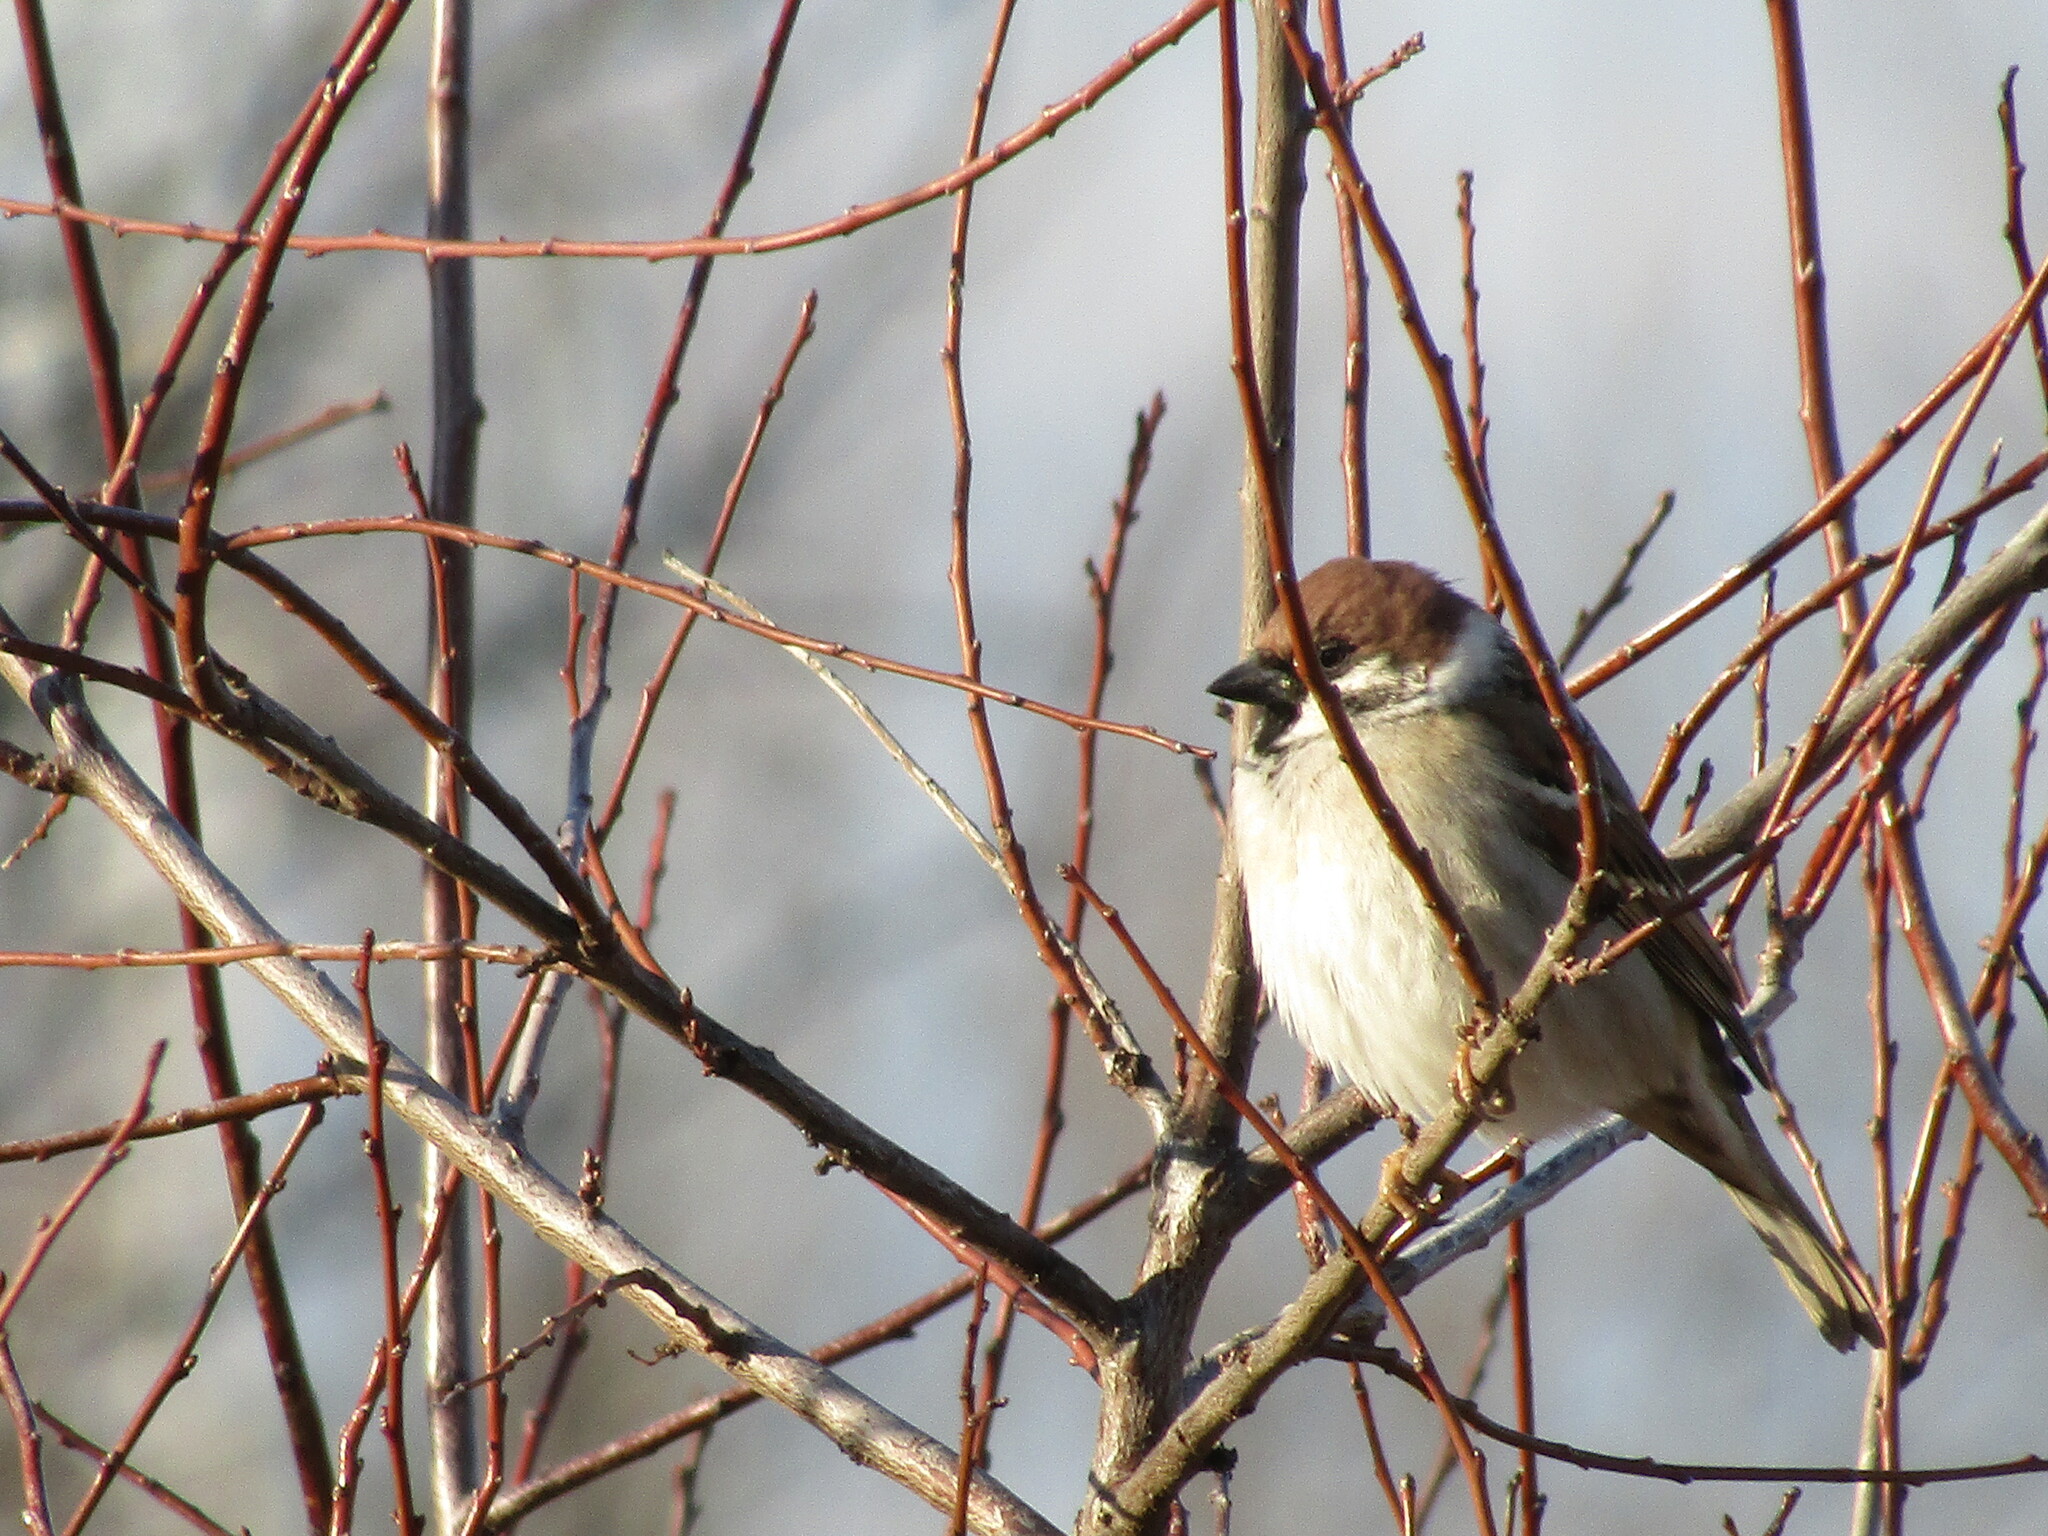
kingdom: Animalia
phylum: Chordata
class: Aves
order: Passeriformes
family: Passeridae
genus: Passer
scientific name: Passer montanus
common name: Eurasian tree sparrow
